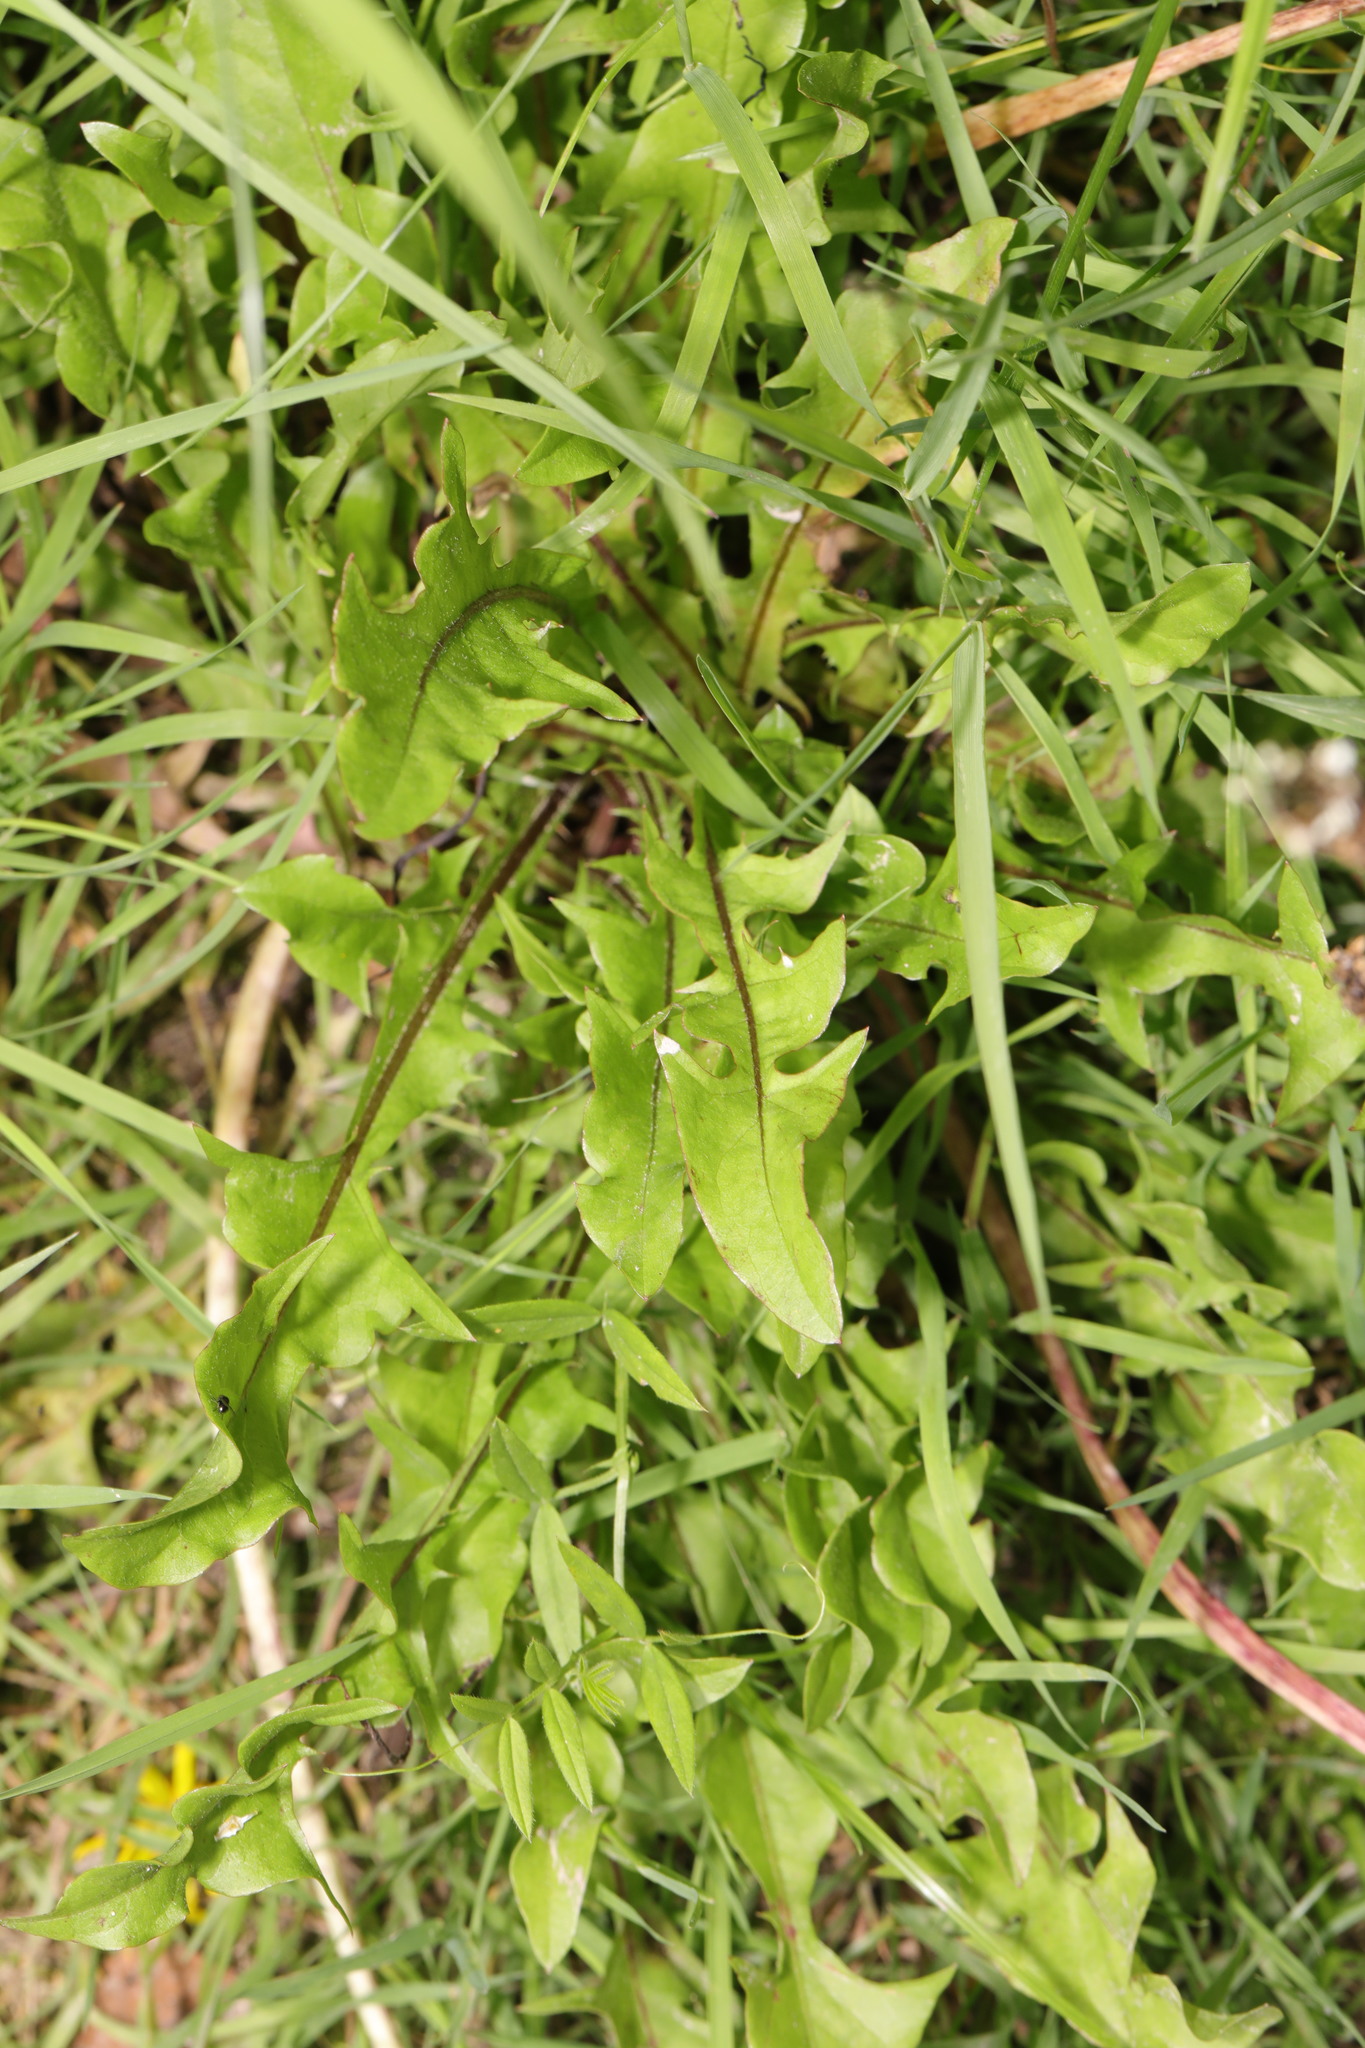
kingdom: Plantae
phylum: Tracheophyta
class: Magnoliopsida
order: Asterales
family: Asteraceae
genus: Taraxacum
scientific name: Taraxacum officinale
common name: Common dandelion
